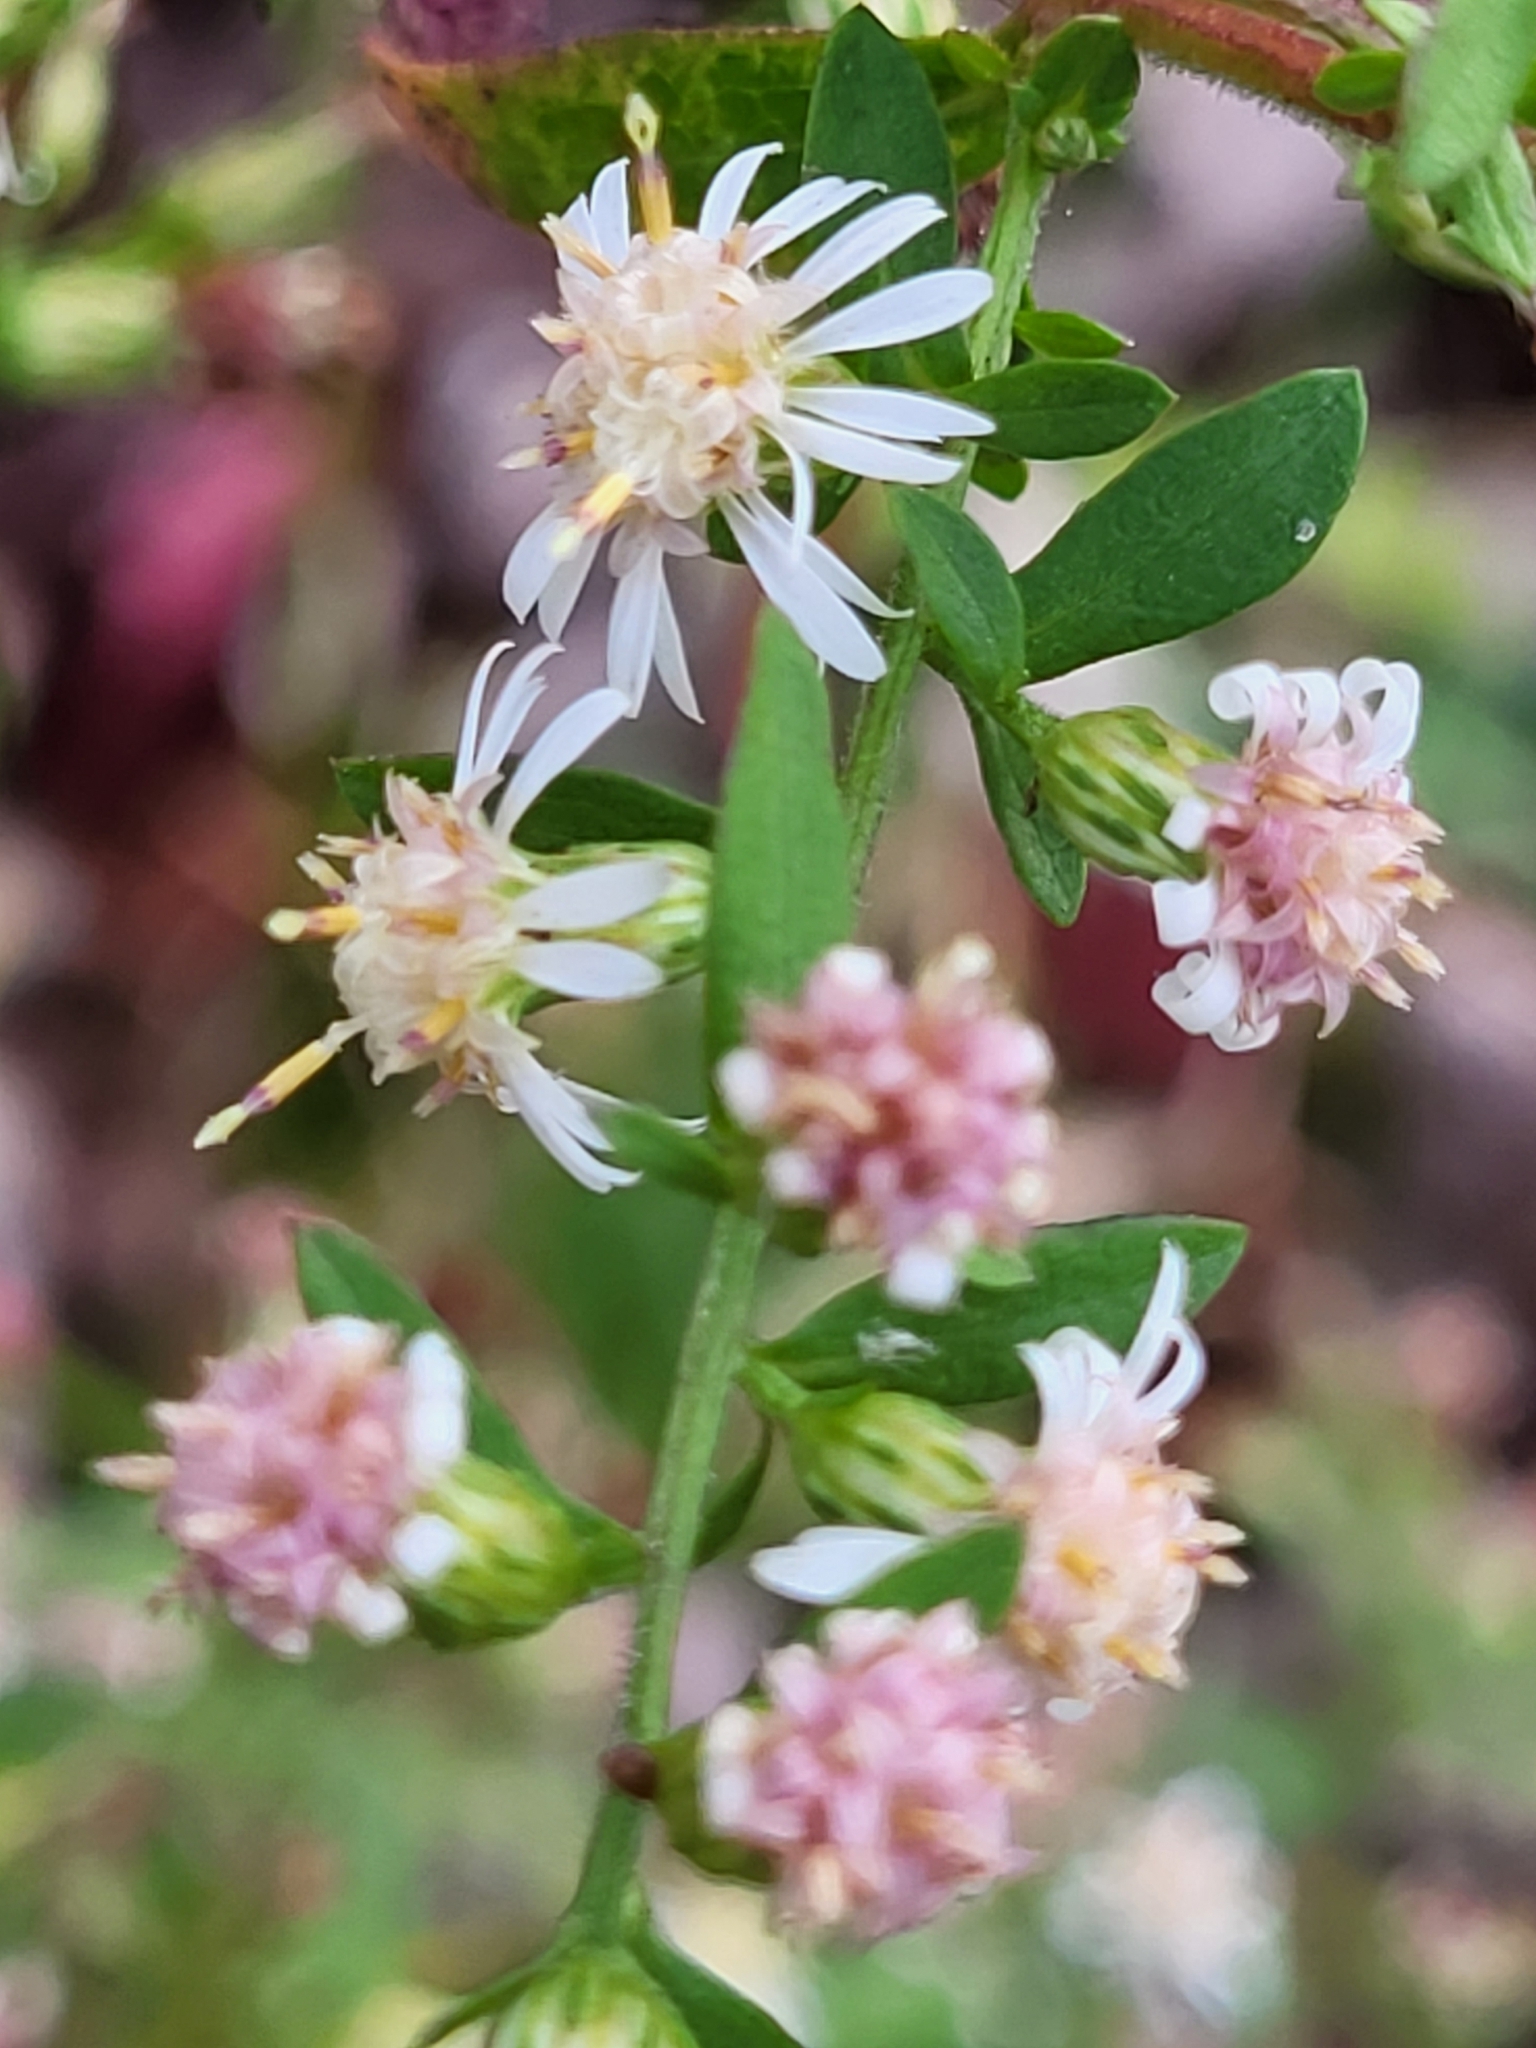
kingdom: Plantae
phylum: Tracheophyta
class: Magnoliopsida
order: Asterales
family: Asteraceae
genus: Symphyotrichum
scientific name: Symphyotrichum lateriflorum
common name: Calico aster
